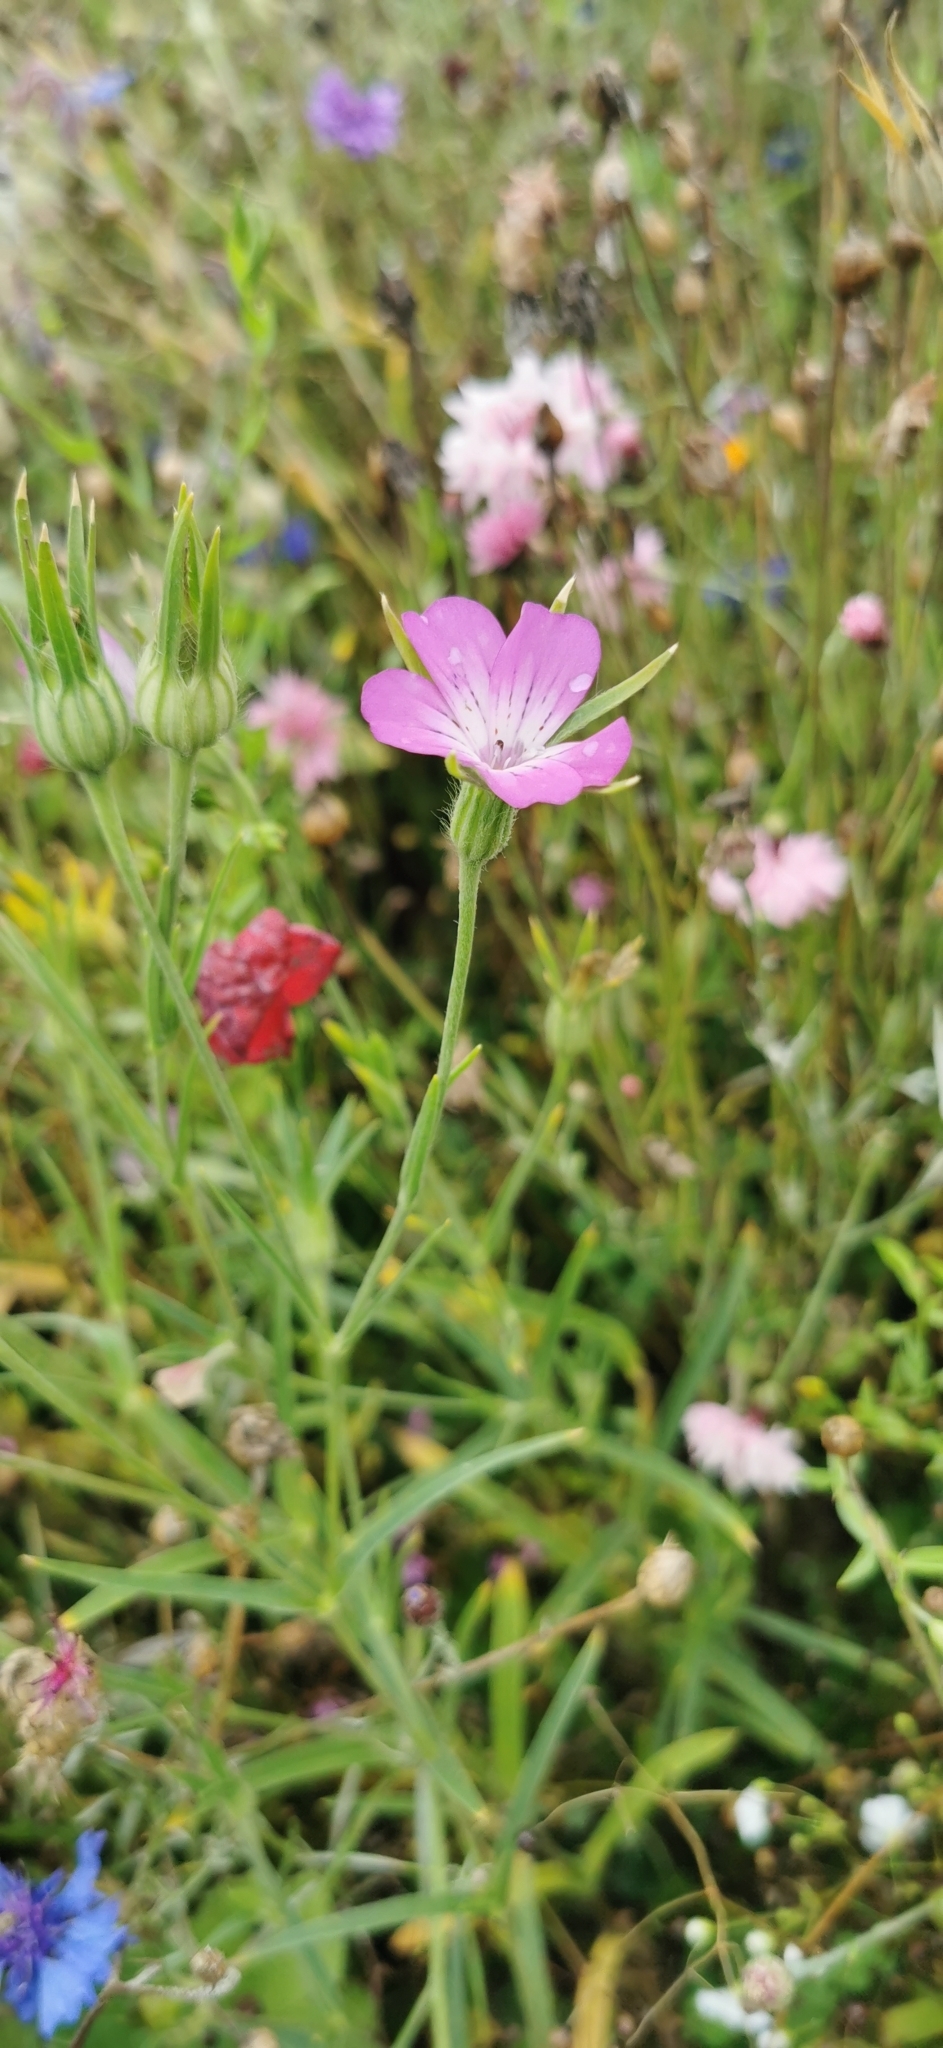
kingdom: Plantae
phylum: Tracheophyta
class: Magnoliopsida
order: Caryophyllales
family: Caryophyllaceae
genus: Agrostemma
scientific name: Agrostemma githago
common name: Common corncockle
